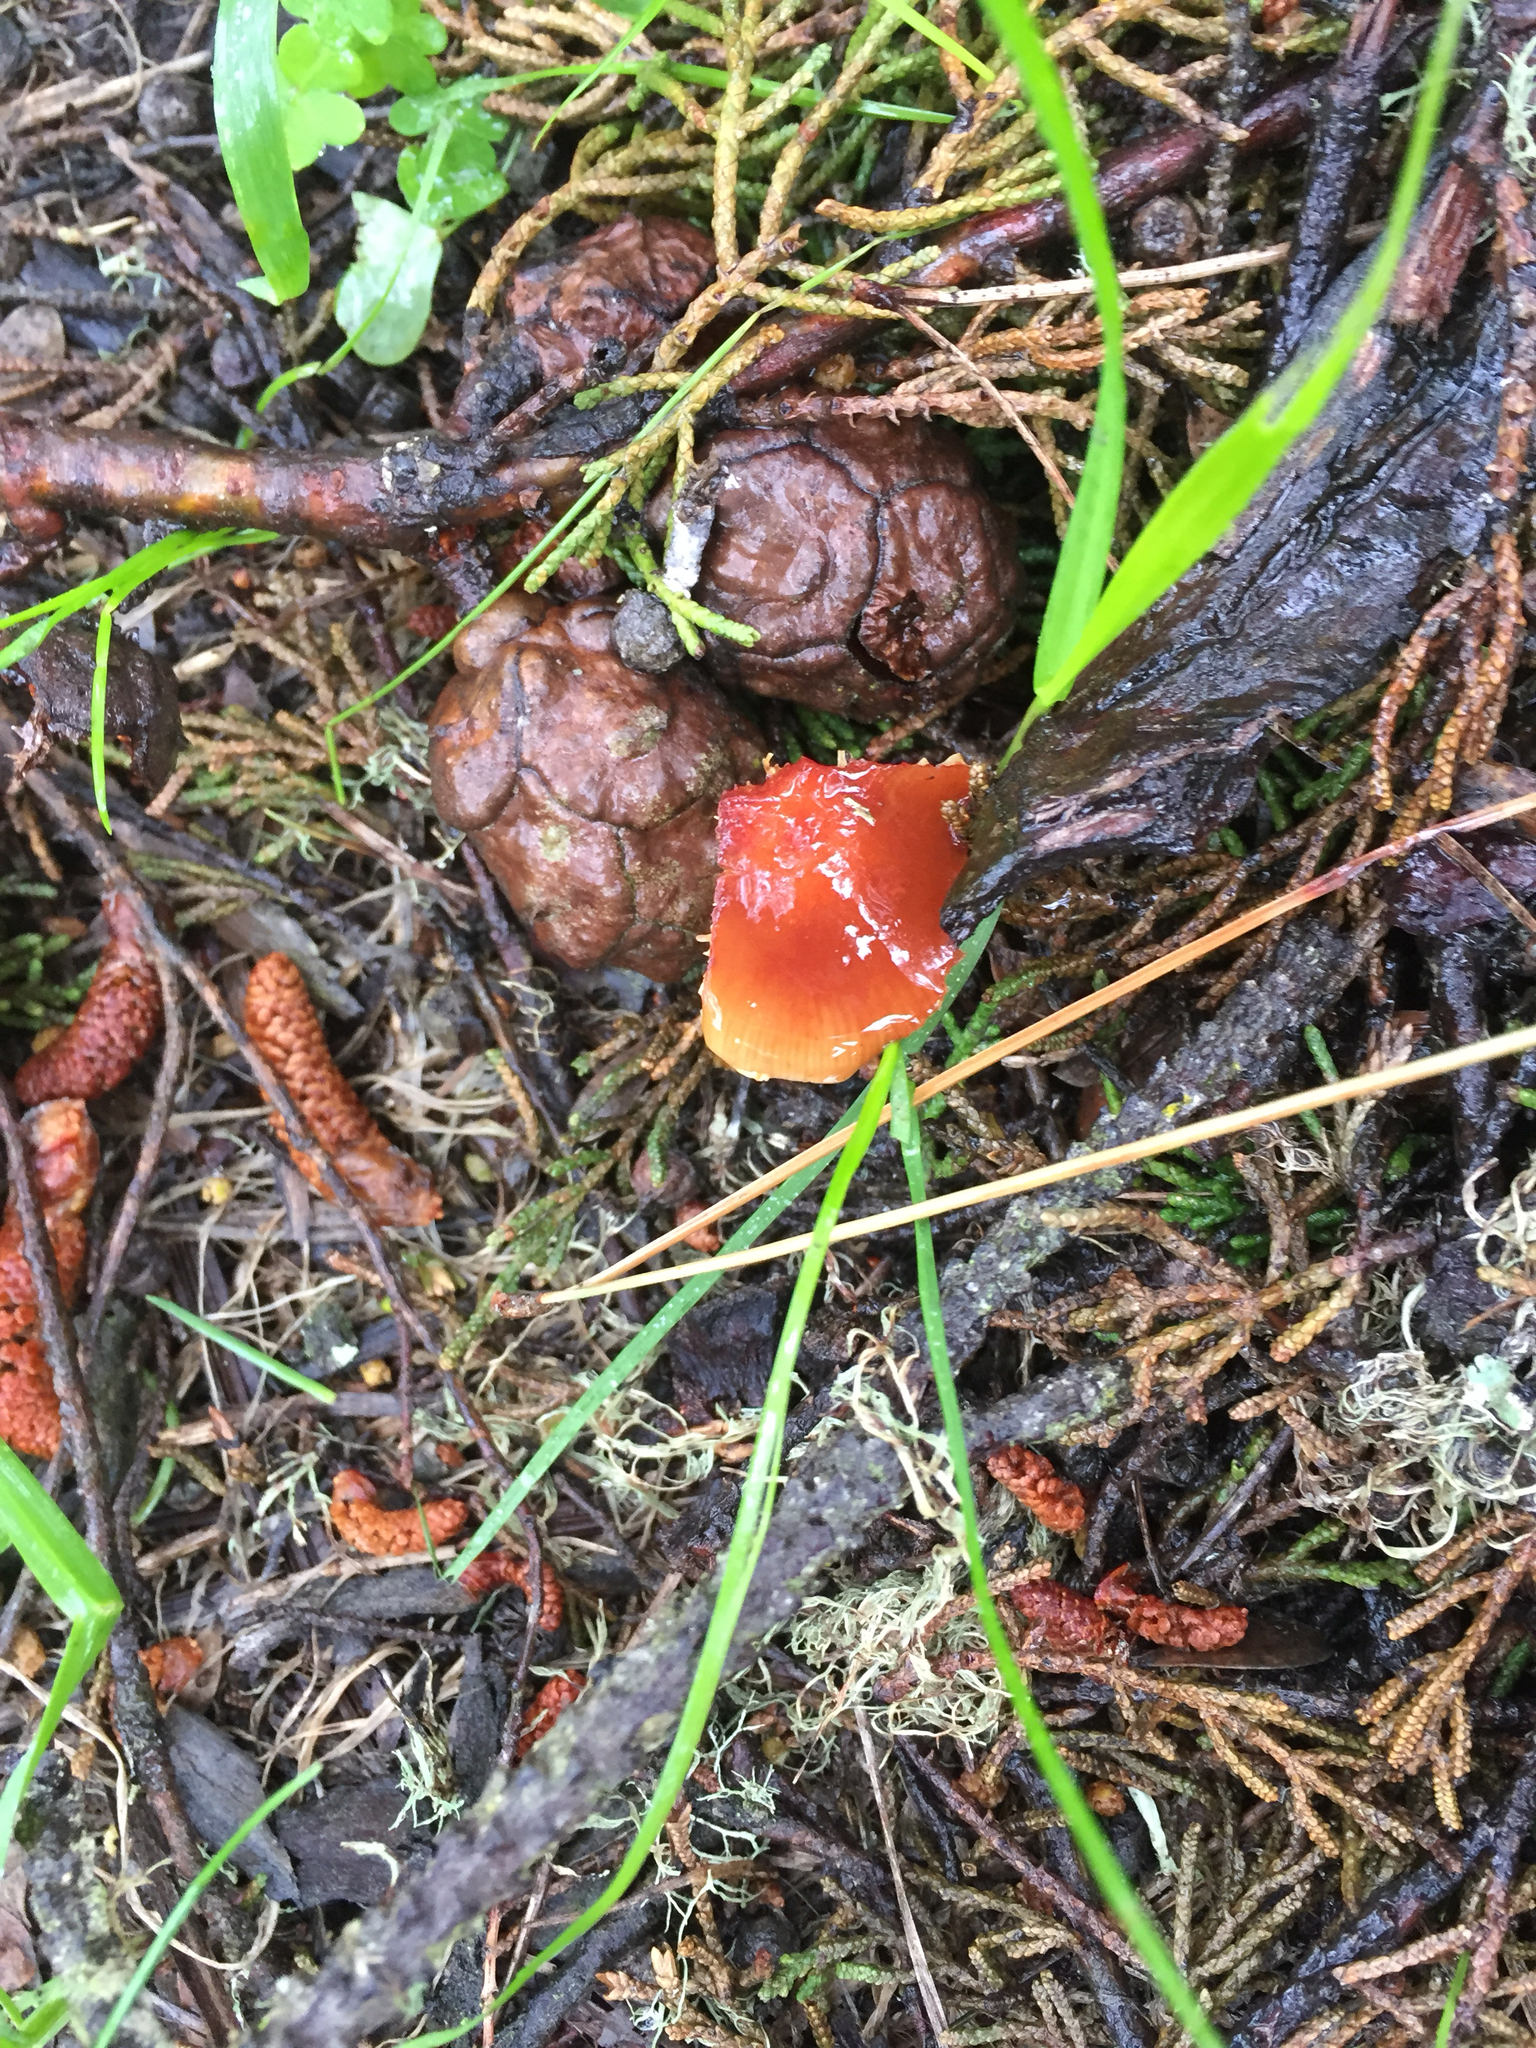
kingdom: Fungi
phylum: Basidiomycota
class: Agaricomycetes
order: Agaricales
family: Strophariaceae
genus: Leratiomyces
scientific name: Leratiomyces ceres
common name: Redlead roundhead
